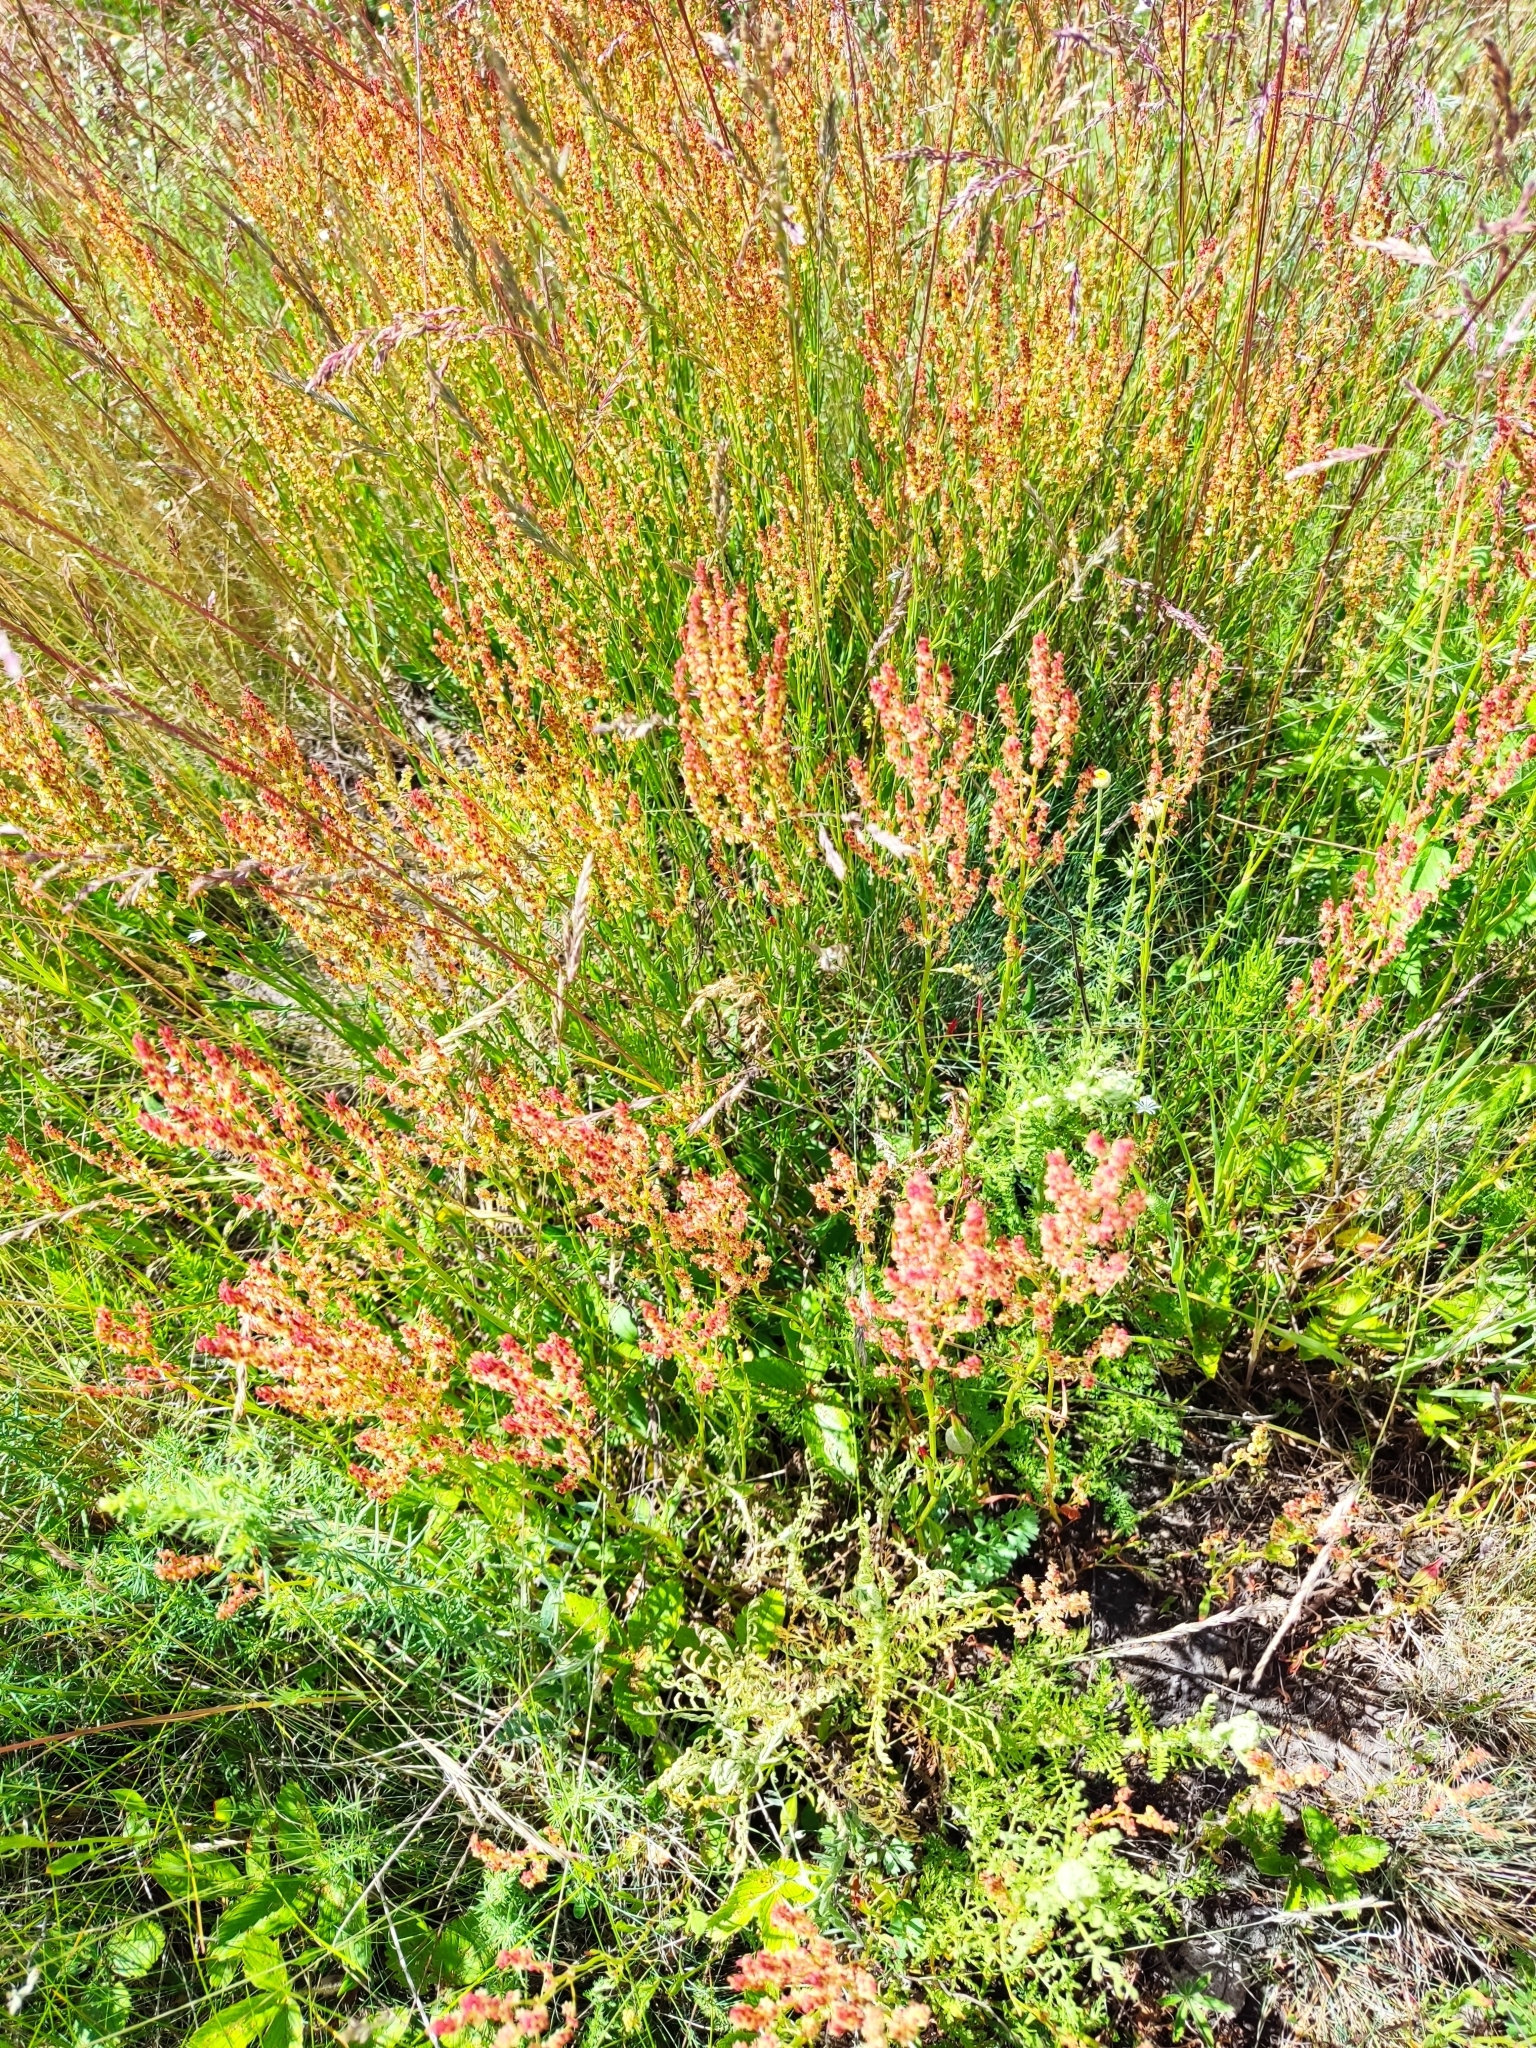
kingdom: Plantae
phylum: Tracheophyta
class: Magnoliopsida
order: Caryophyllales
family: Polygonaceae
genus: Rumex
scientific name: Rumex acetosella
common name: Common sheep sorrel
